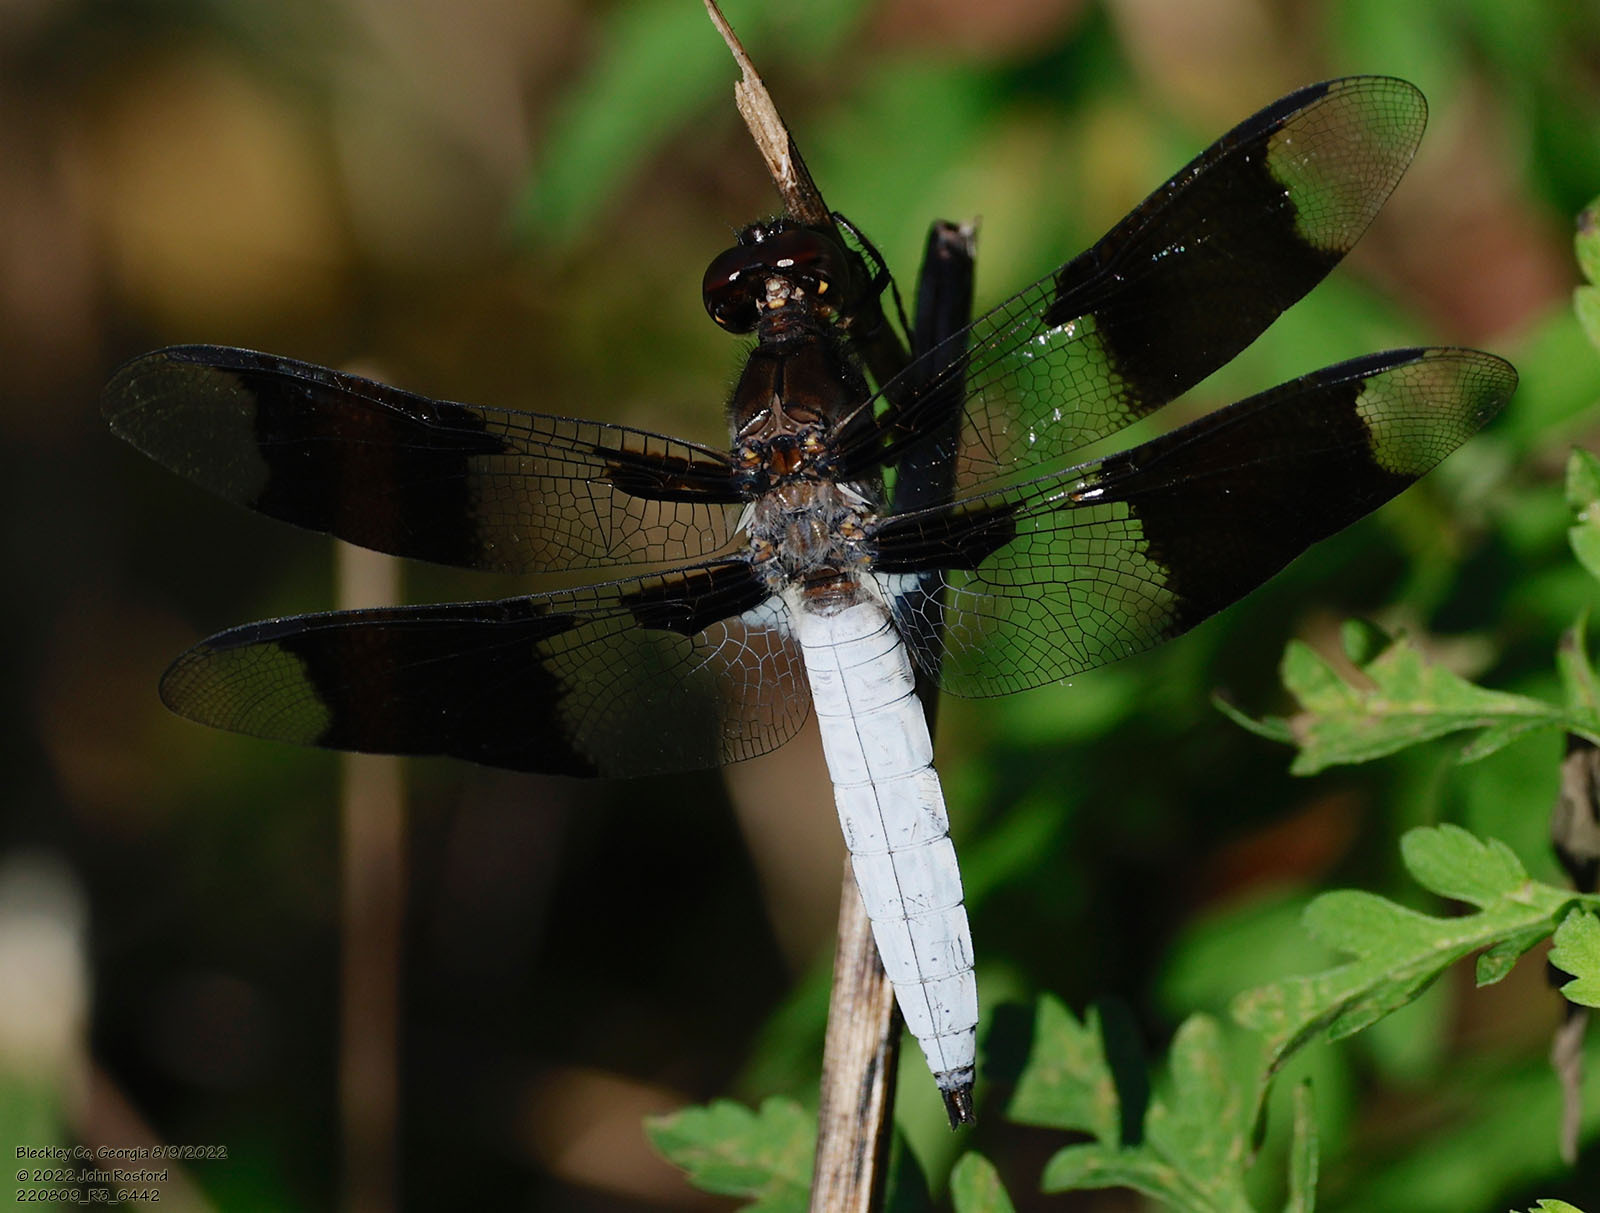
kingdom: Animalia
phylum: Arthropoda
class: Insecta
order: Odonata
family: Libellulidae
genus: Plathemis
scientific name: Plathemis lydia
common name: Common whitetail
